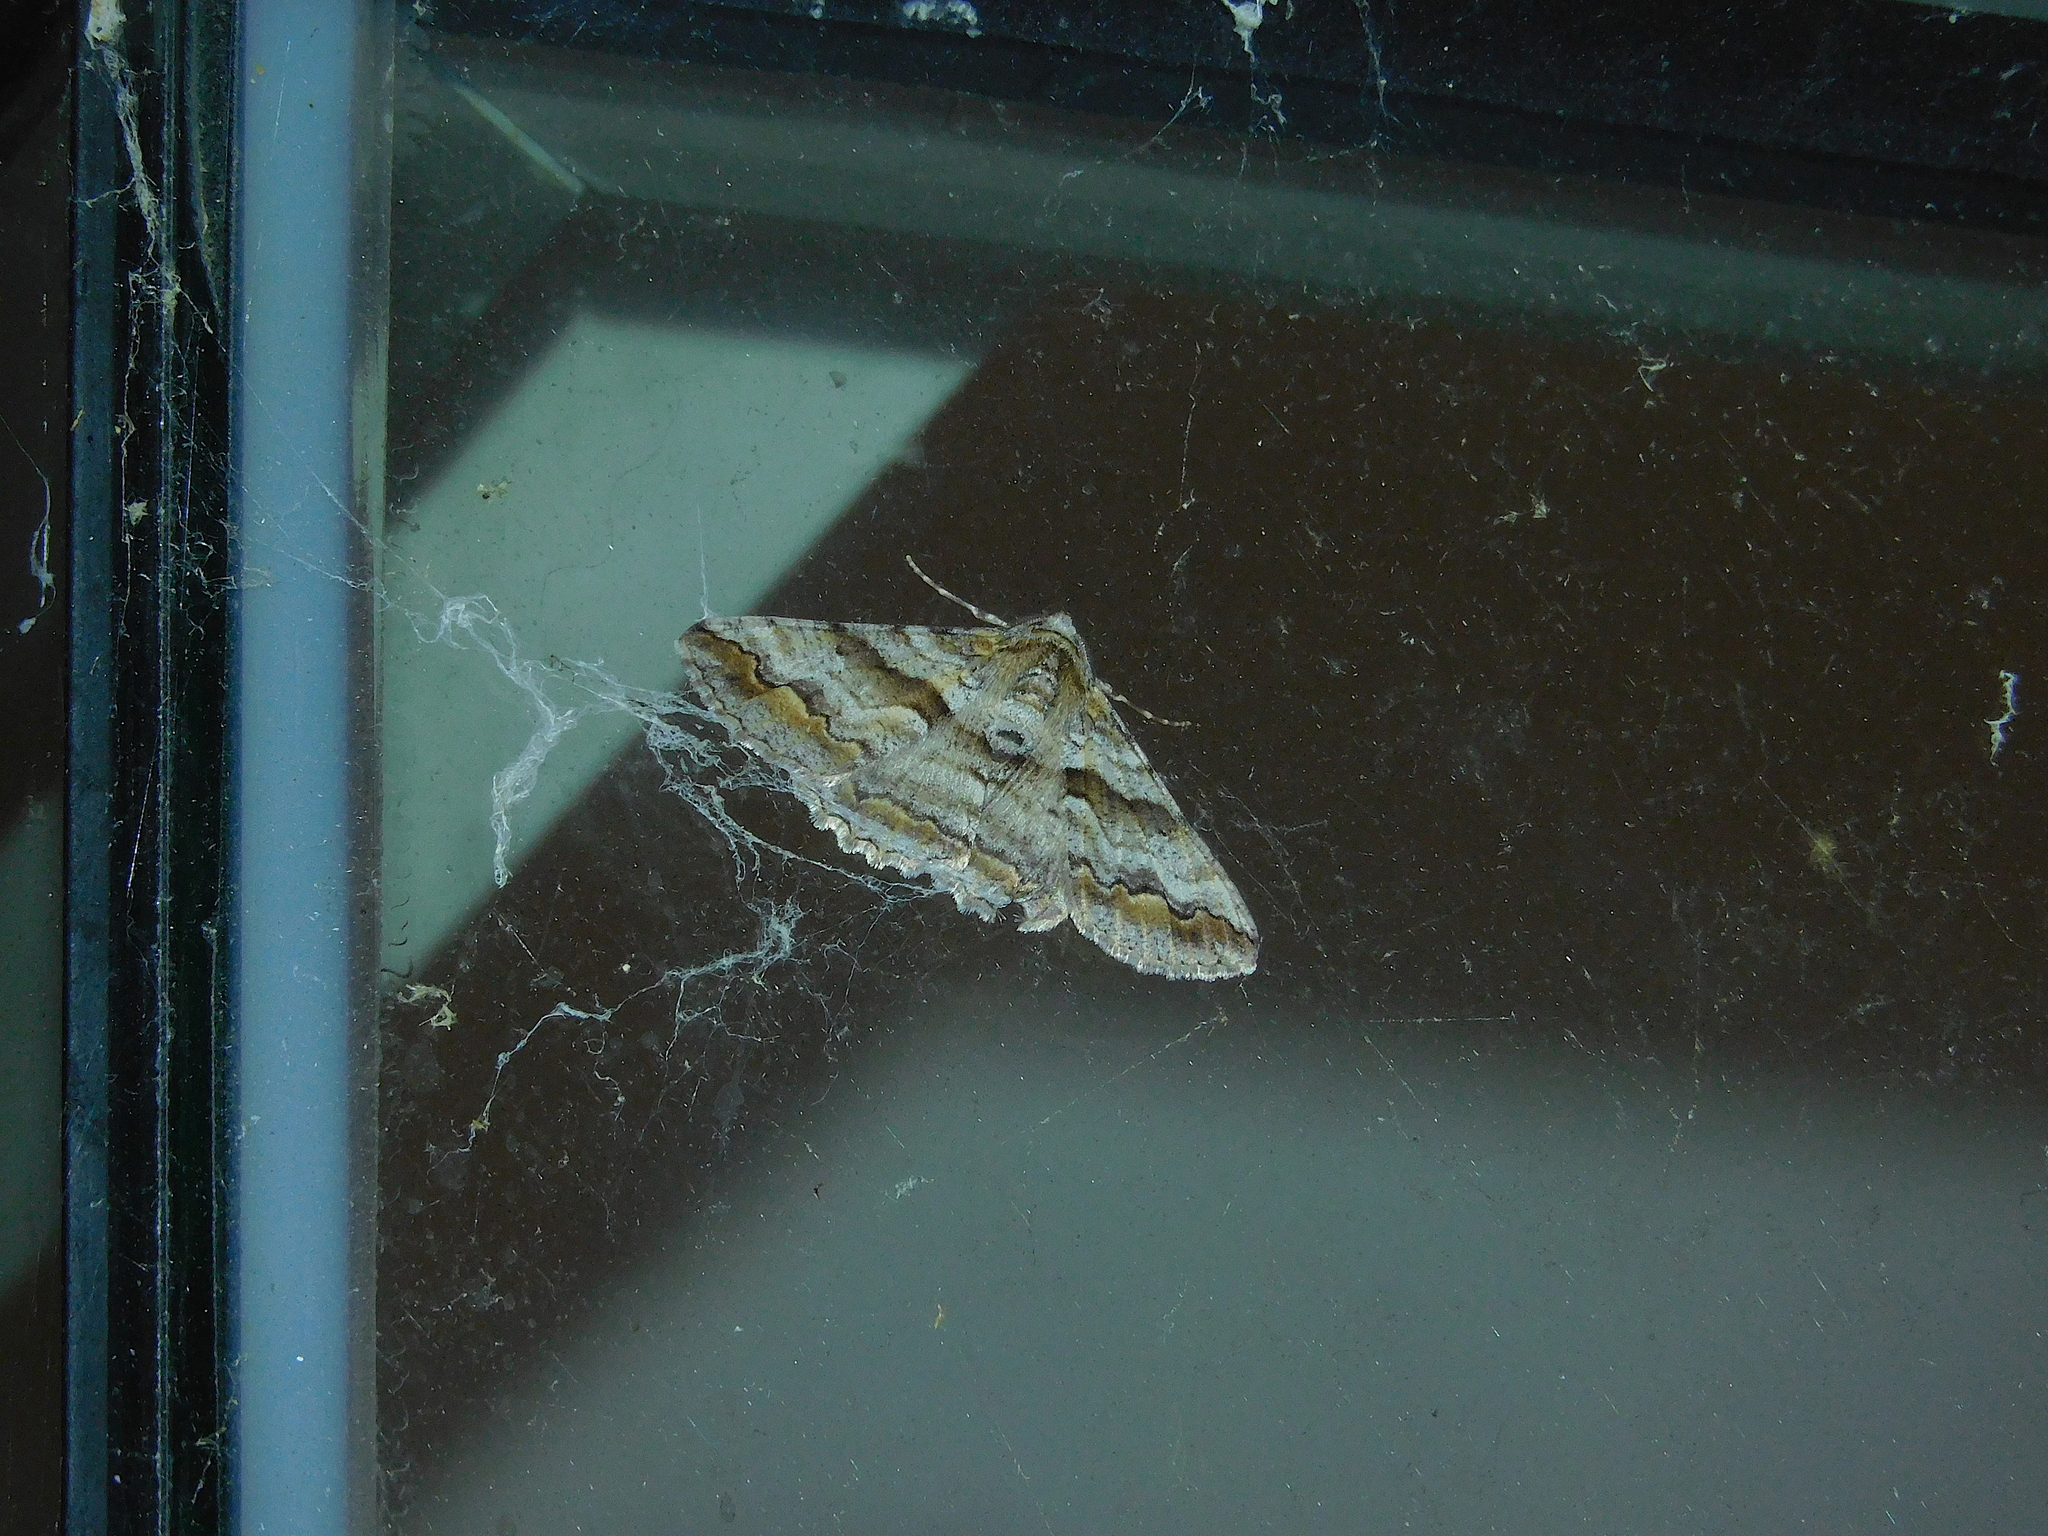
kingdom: Animalia
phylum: Arthropoda
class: Insecta
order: Lepidoptera
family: Geometridae
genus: Gastrinodes
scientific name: Gastrinodes bitaeniaria
